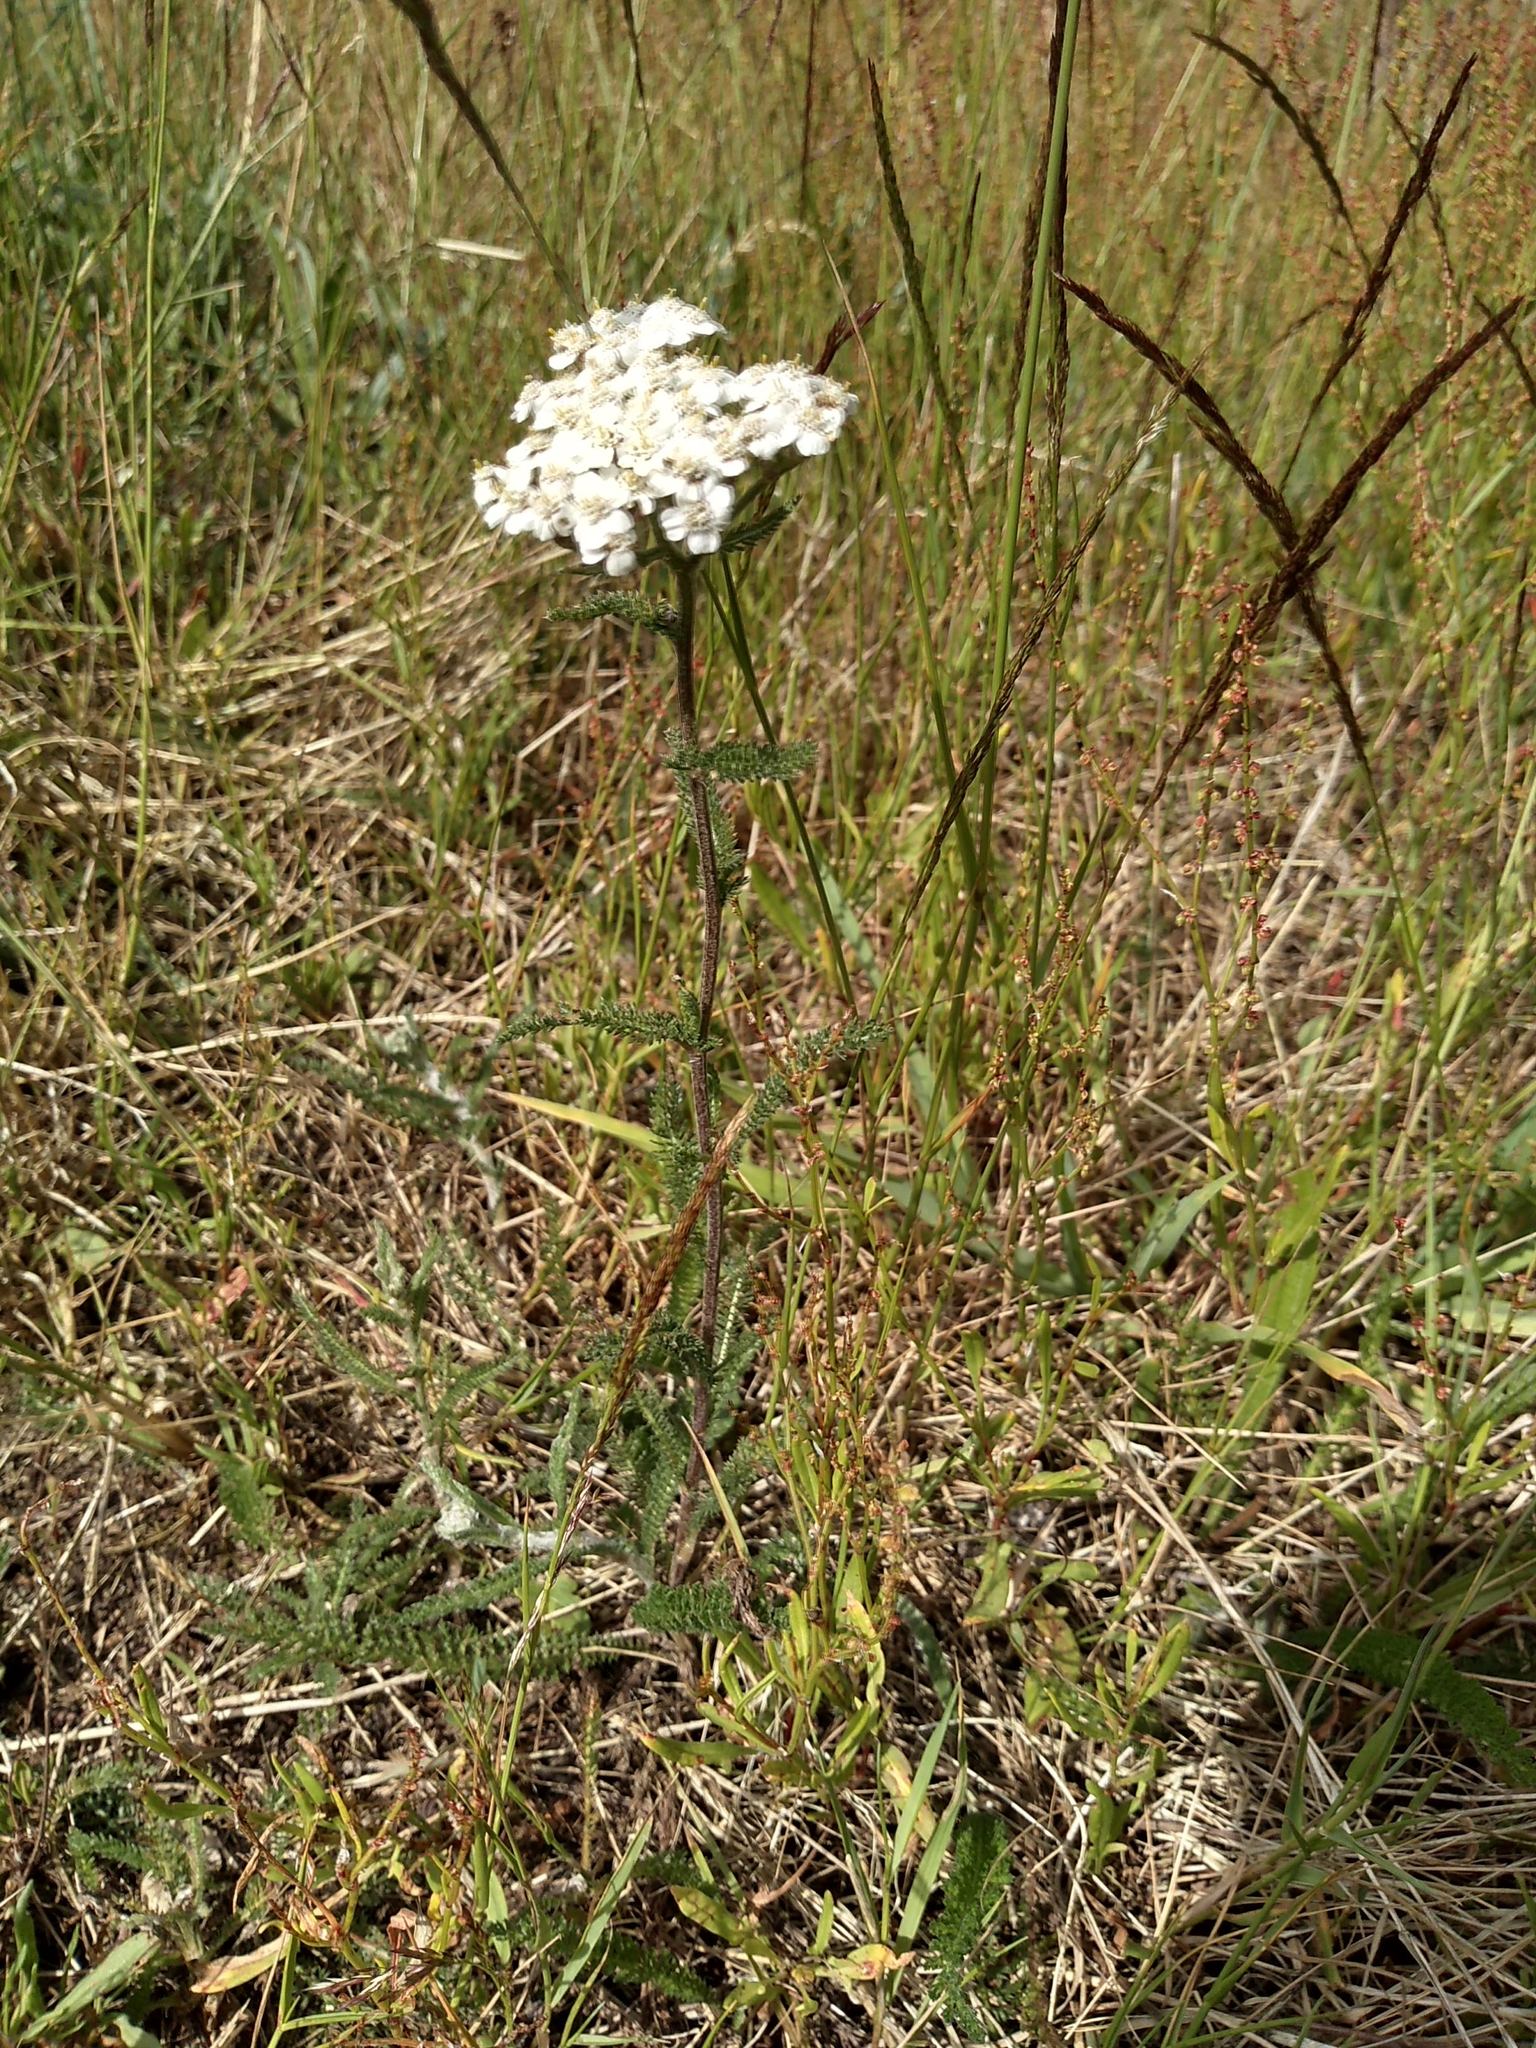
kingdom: Plantae
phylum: Tracheophyta
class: Magnoliopsida
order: Asterales
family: Asteraceae
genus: Achillea
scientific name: Achillea millefolium
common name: Yarrow
